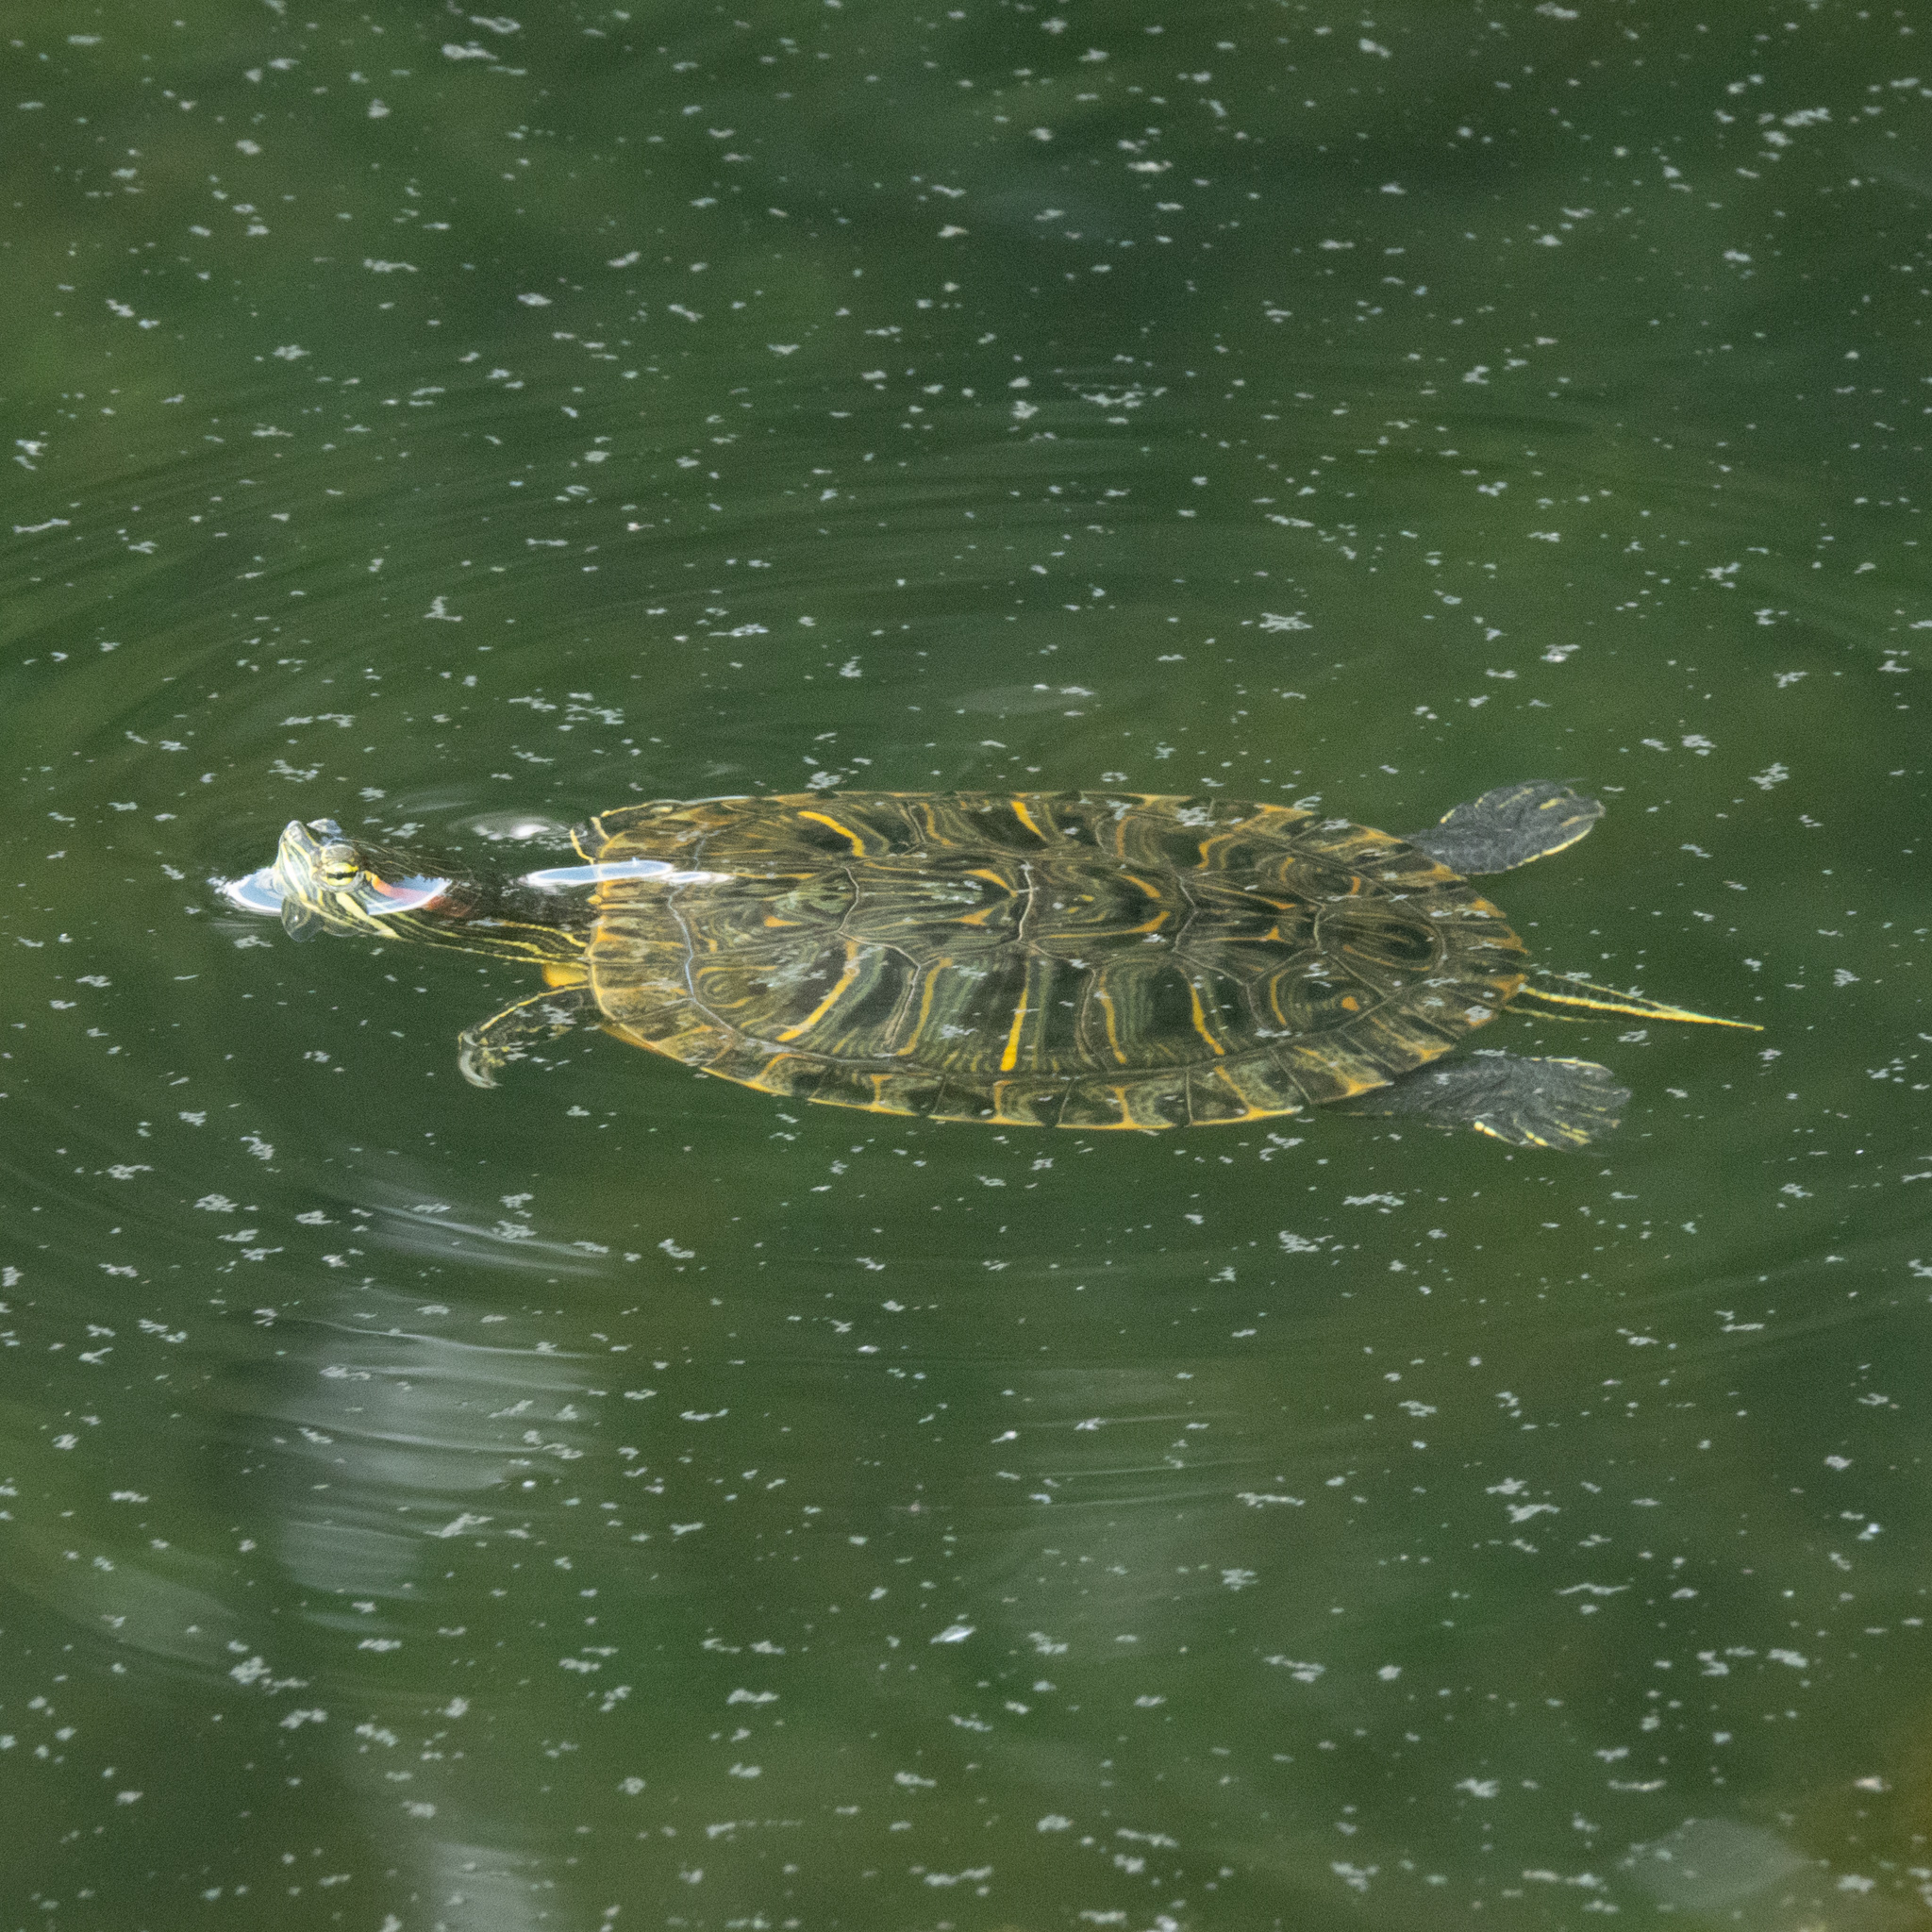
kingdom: Animalia
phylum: Chordata
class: Testudines
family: Emydidae
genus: Trachemys
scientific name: Trachemys scripta
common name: Slider
